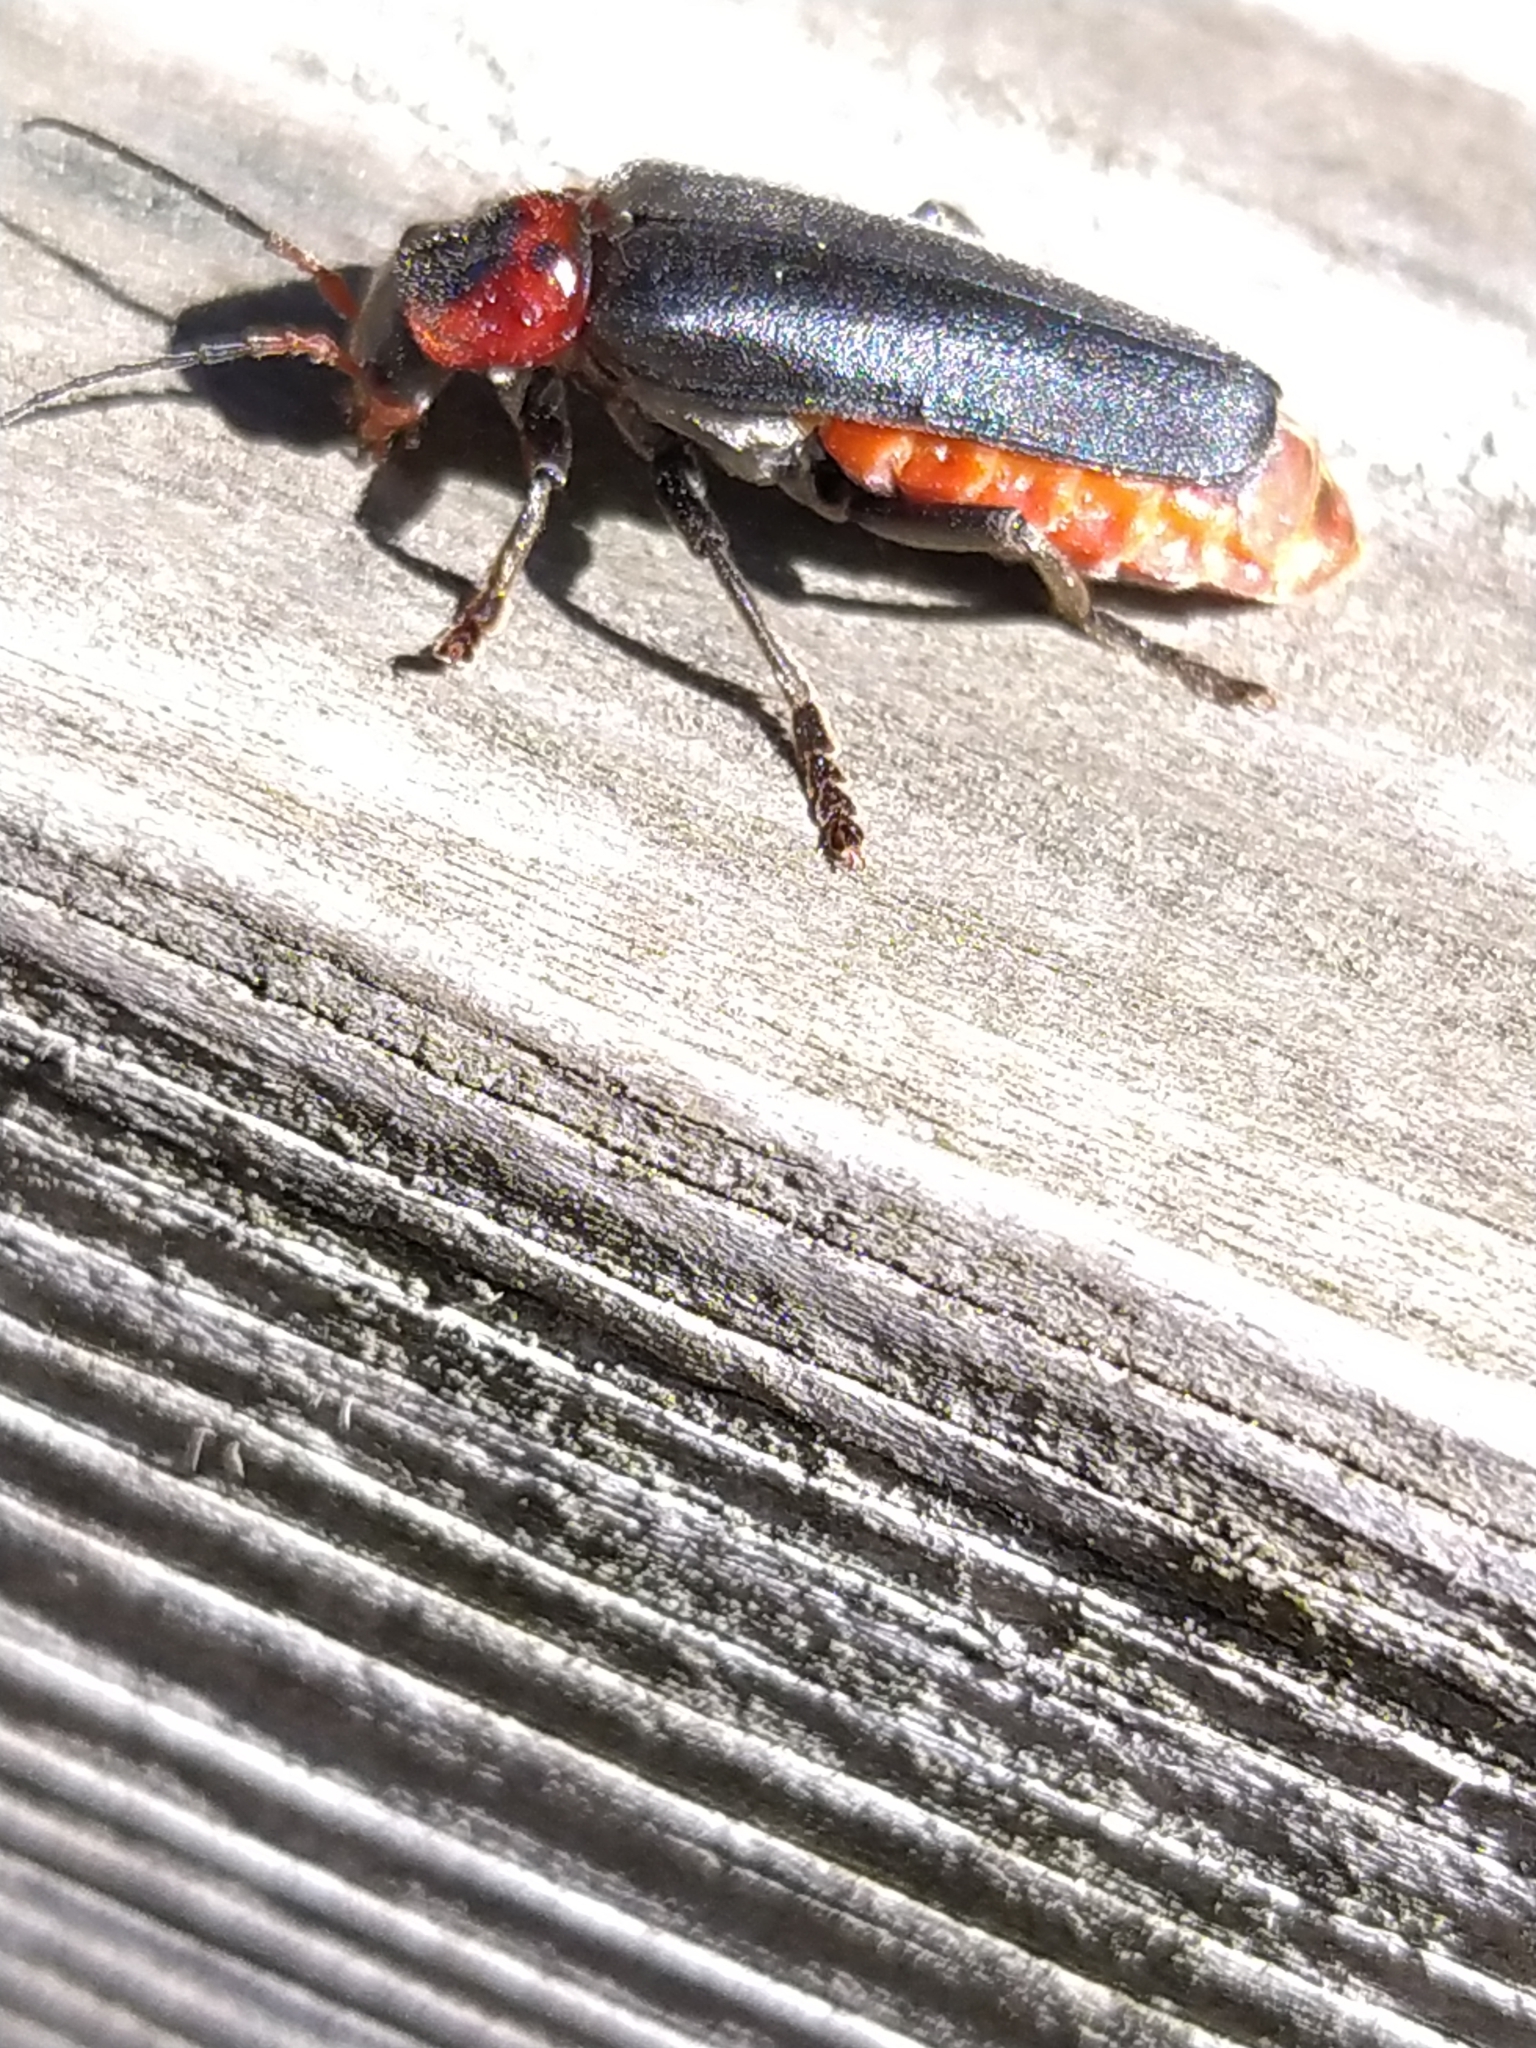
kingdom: Animalia
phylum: Arthropoda
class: Insecta
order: Coleoptera
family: Cantharidae
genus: Cantharis
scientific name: Cantharis fusca
